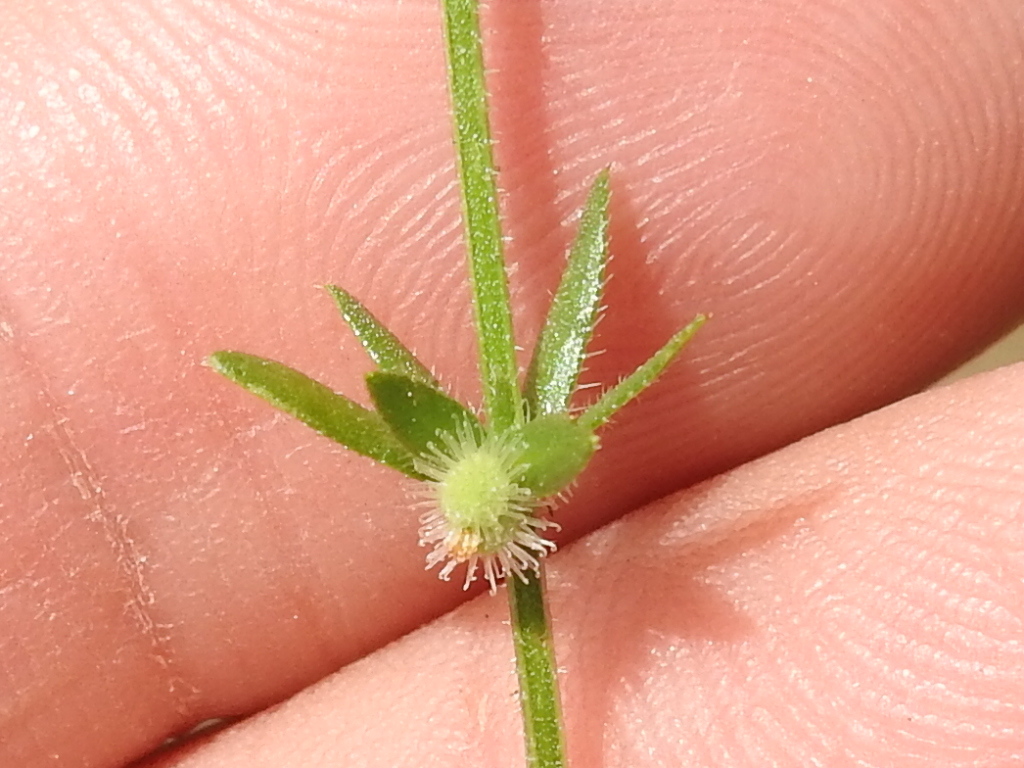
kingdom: Plantae
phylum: Tracheophyta
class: Magnoliopsida
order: Gentianales
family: Rubiaceae
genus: Galium
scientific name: Galium virgatum
